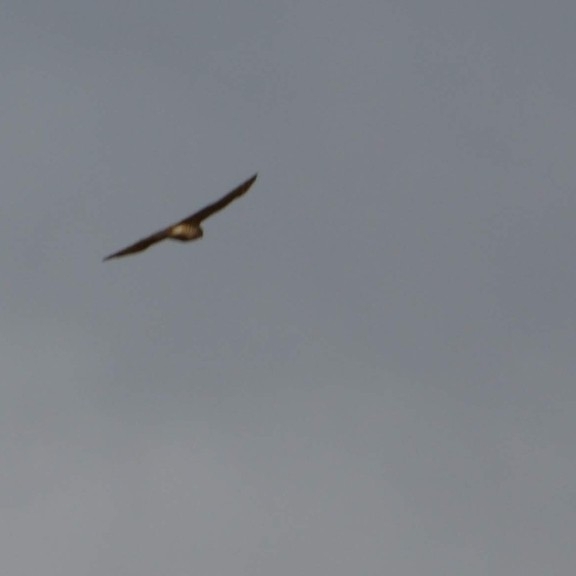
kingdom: Animalia
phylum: Chordata
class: Aves
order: Accipitriformes
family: Accipitridae
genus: Accipiter
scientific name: Accipiter
